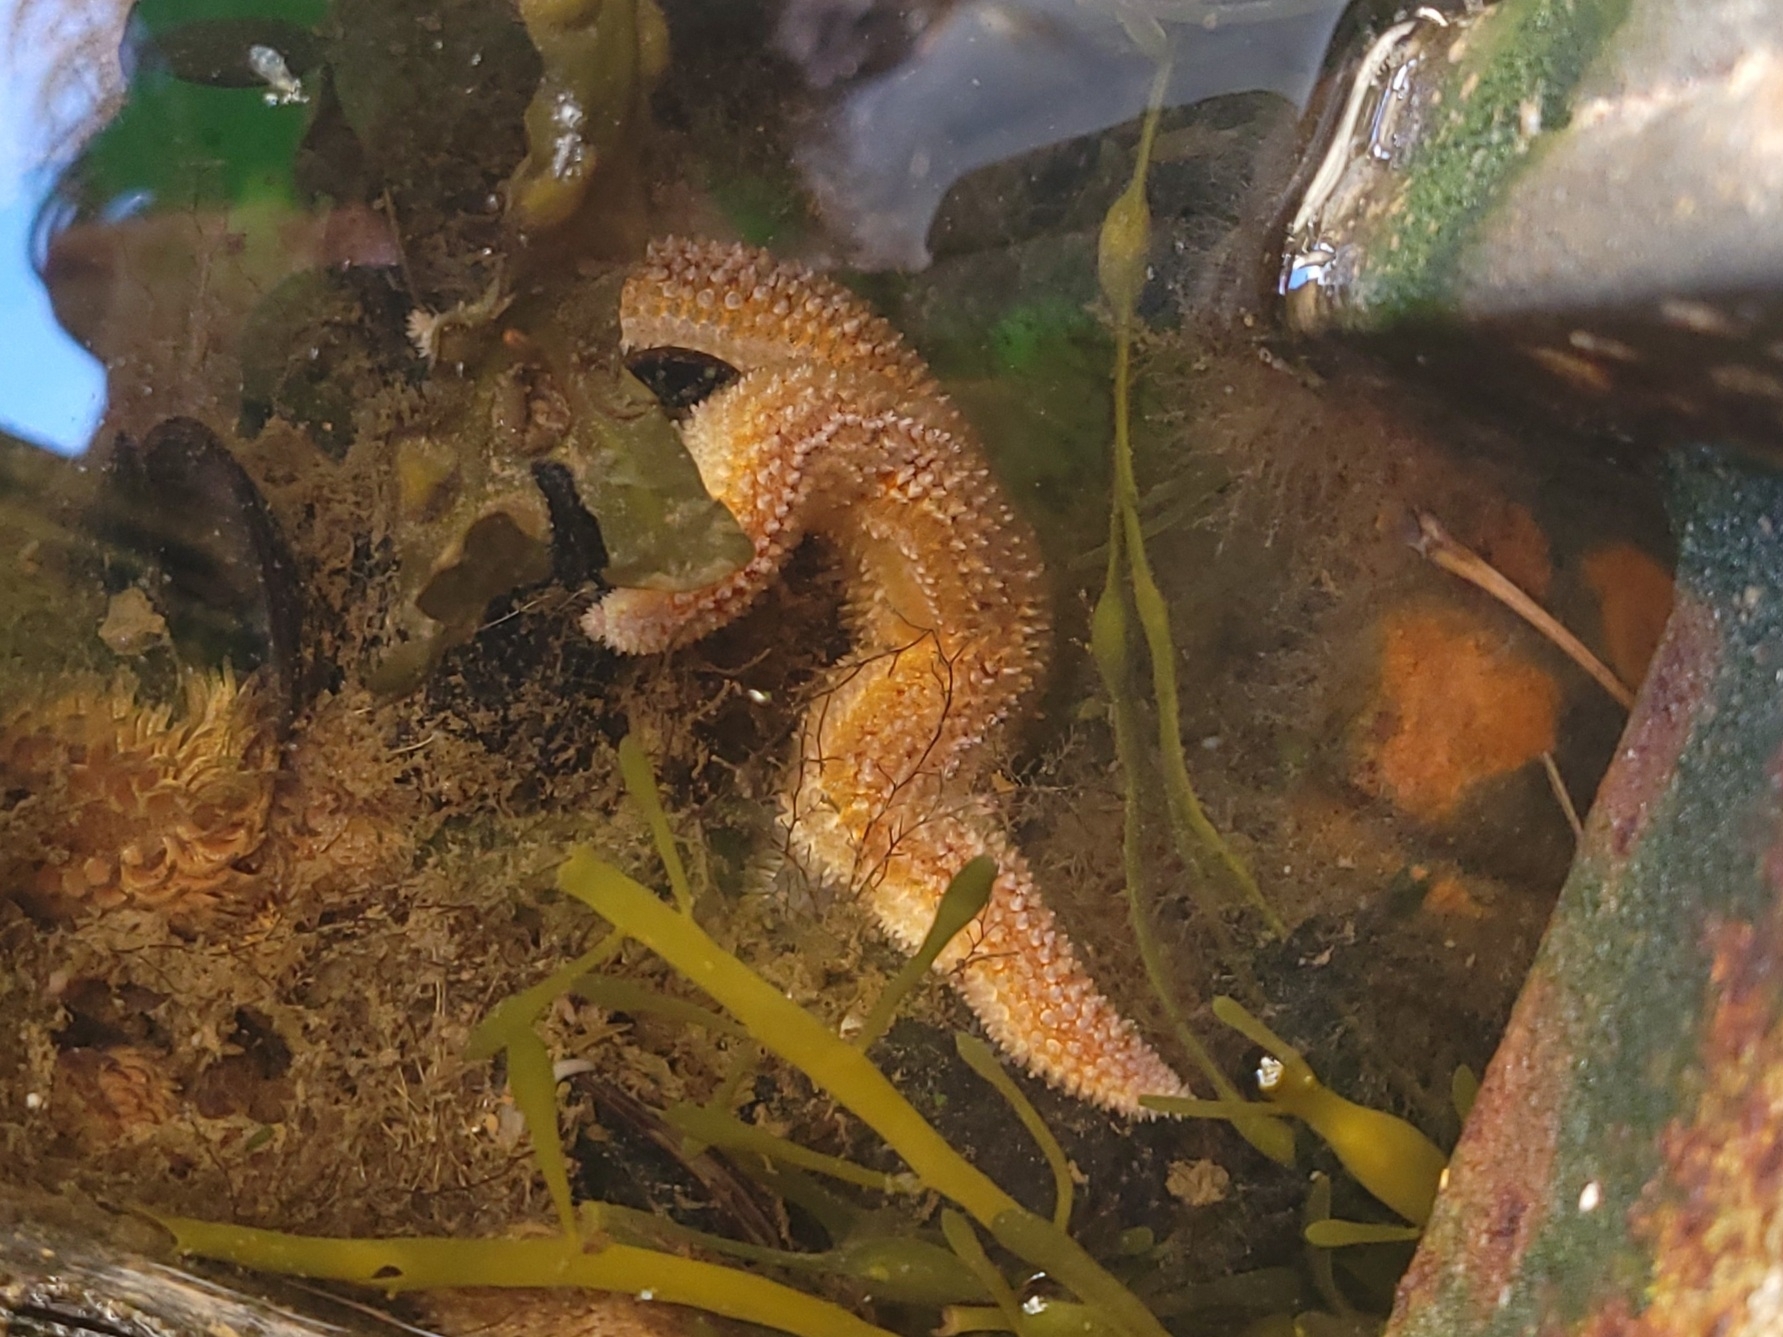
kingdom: Animalia
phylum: Echinodermata
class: Asteroidea
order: Forcipulatida
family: Asteriidae
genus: Asterias
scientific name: Asterias rubens
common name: Common starfish
